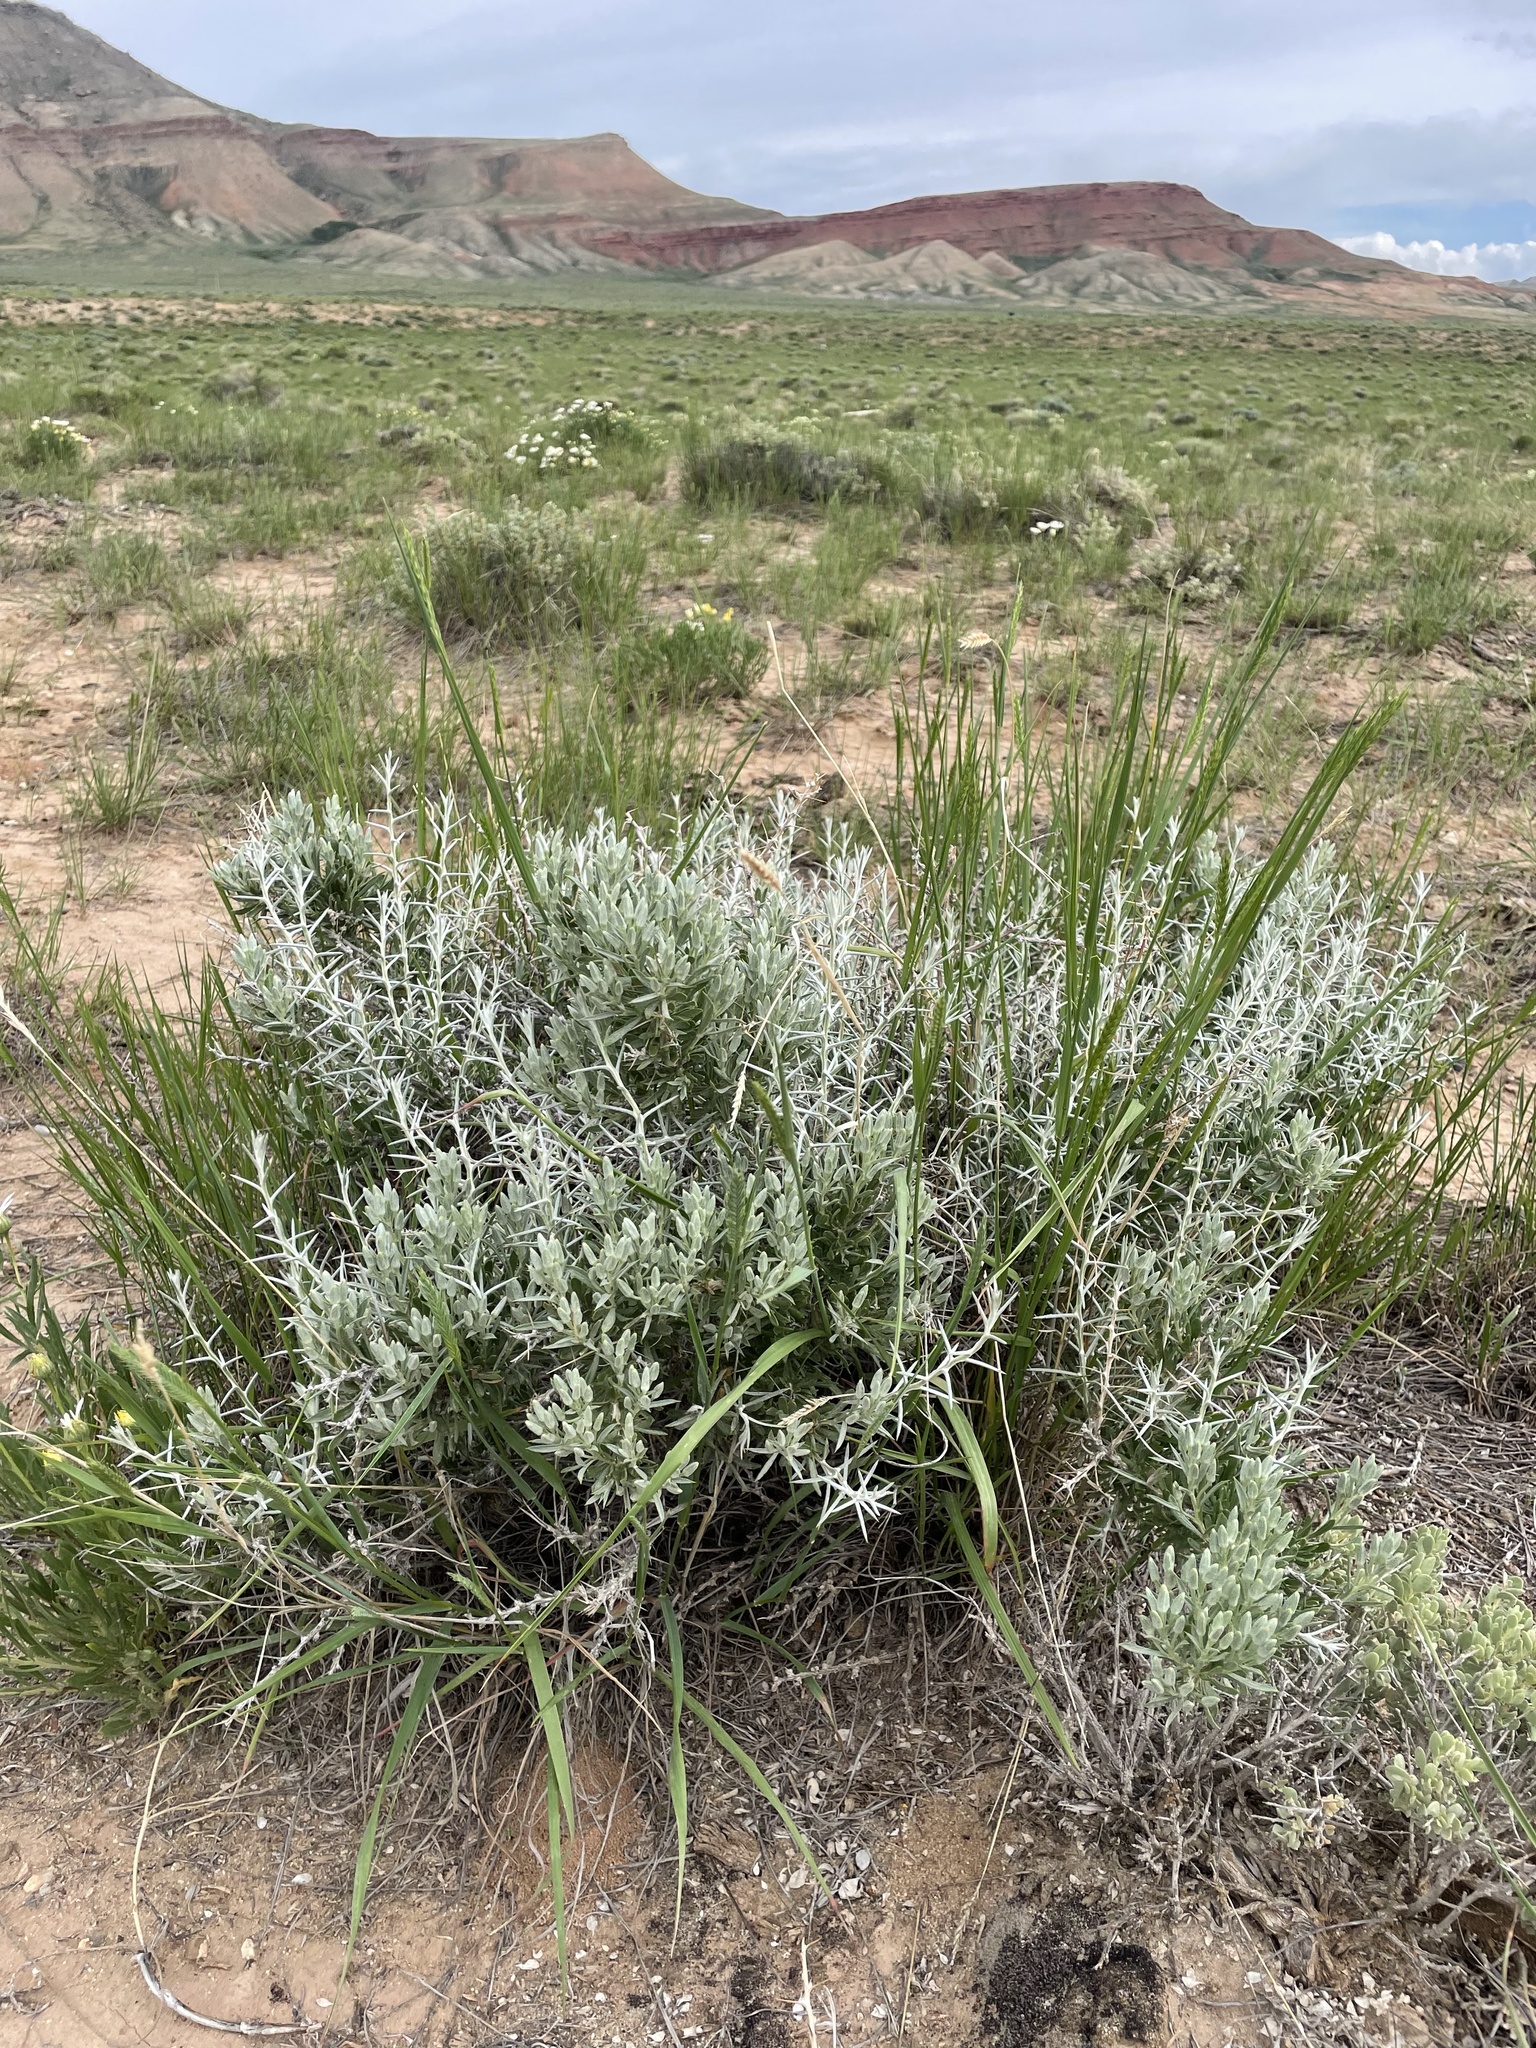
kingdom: Plantae
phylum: Tracheophyta
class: Magnoliopsida
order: Asterales
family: Asteraceae
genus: Tetradymia
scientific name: Tetradymia nuttallii
